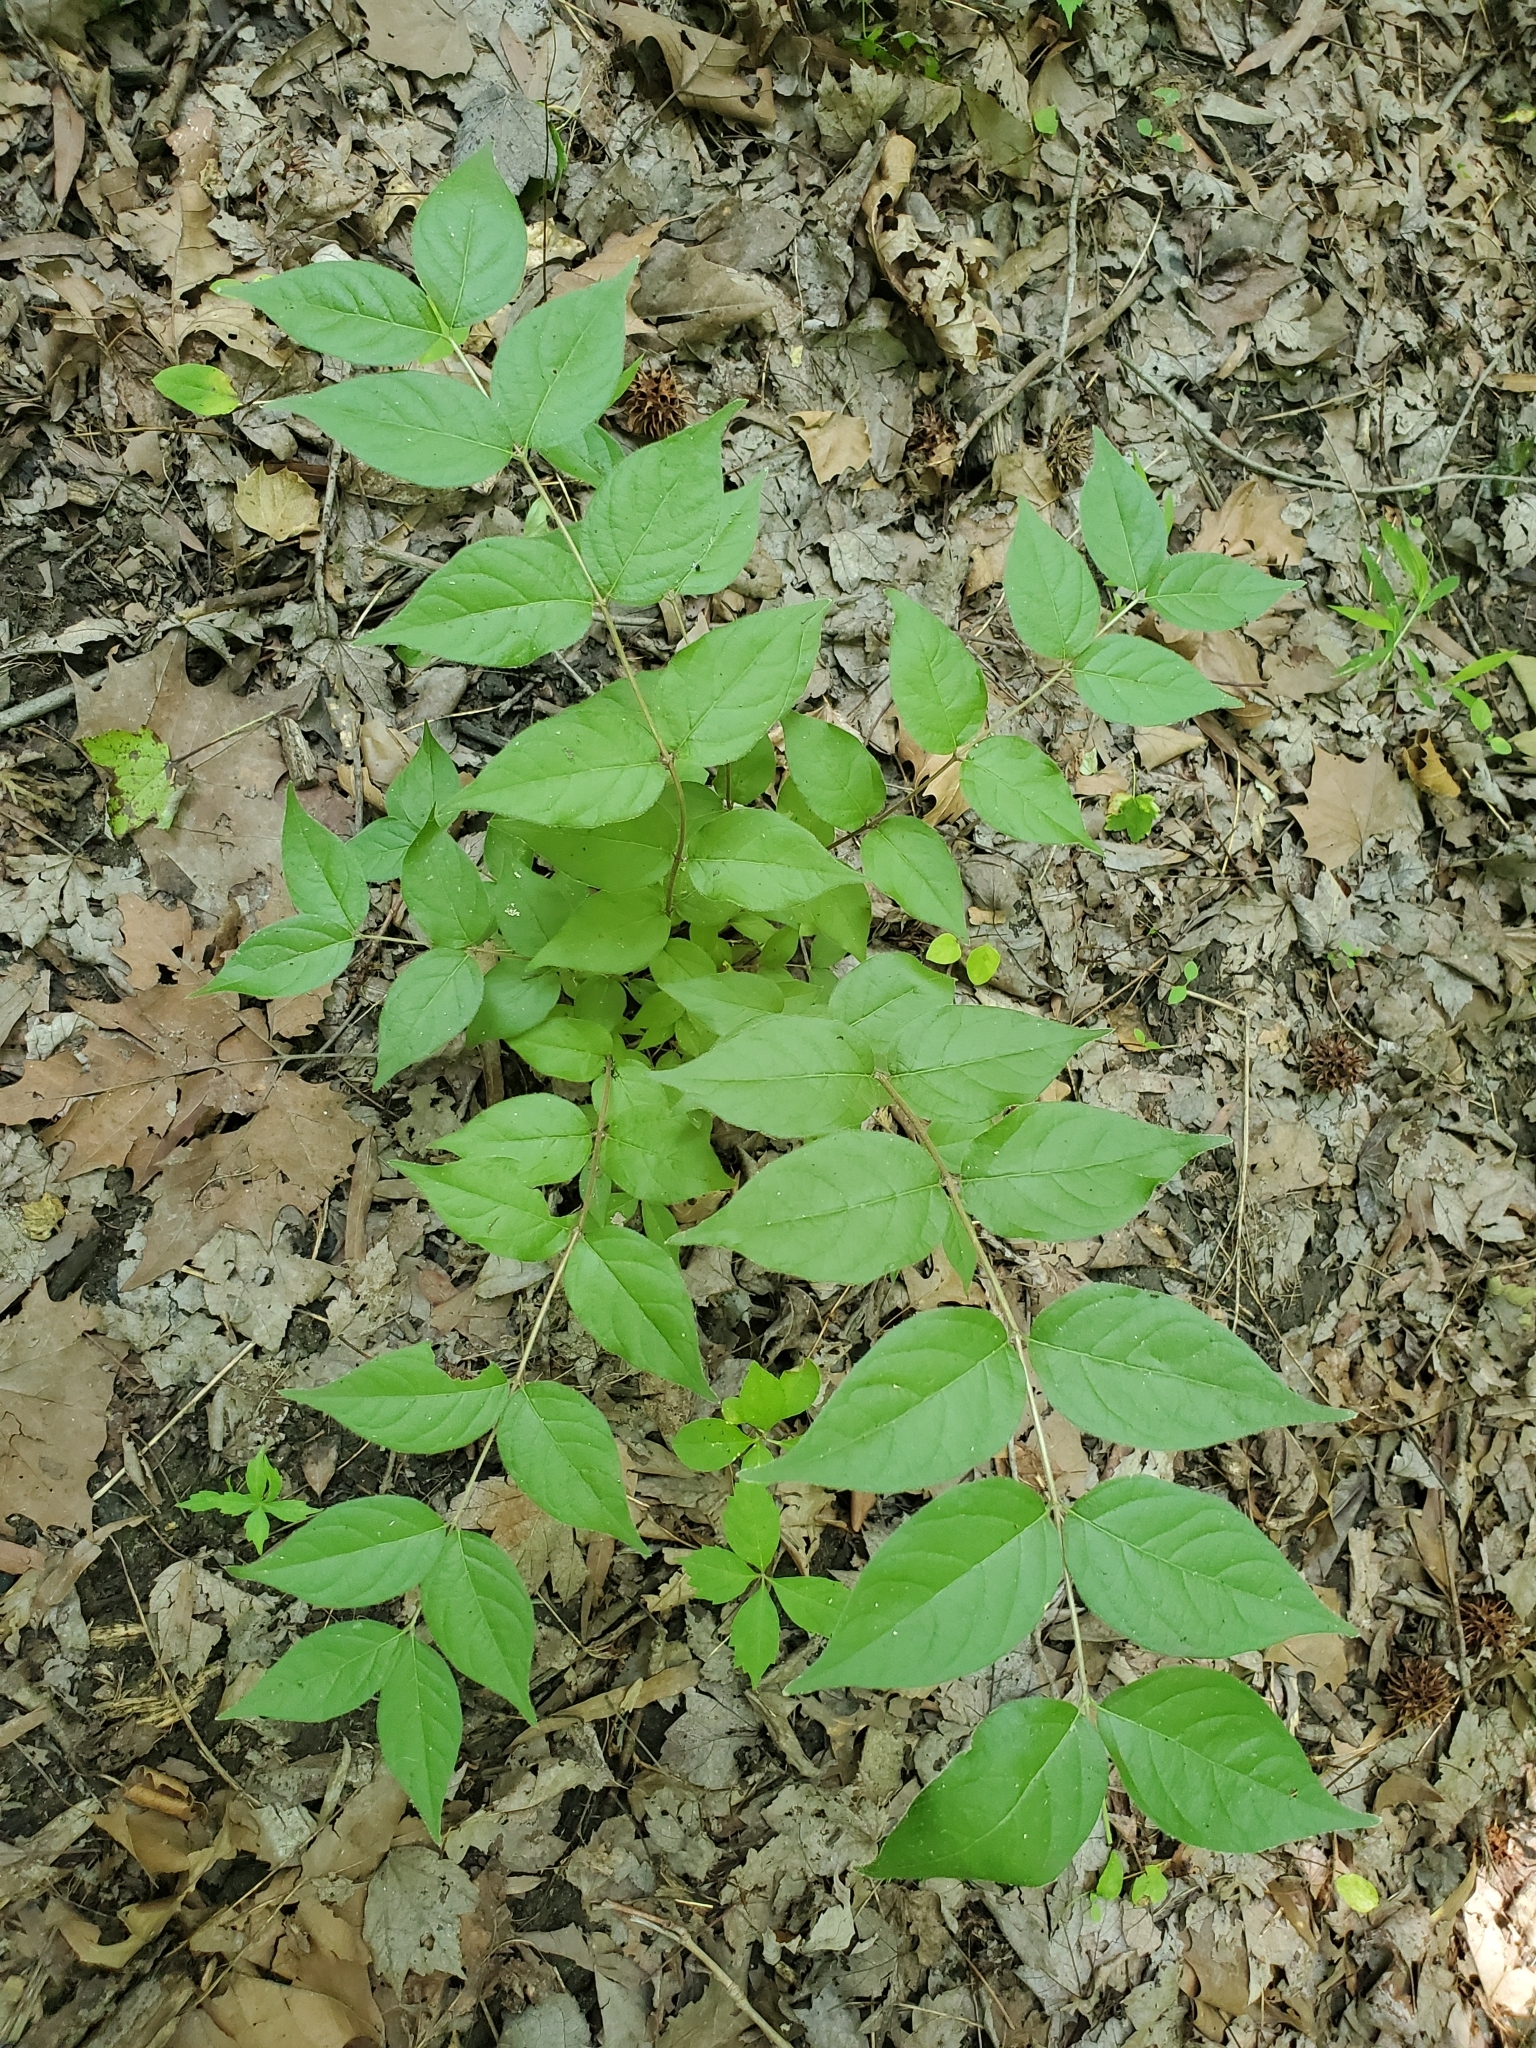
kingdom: Plantae
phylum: Tracheophyta
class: Magnoliopsida
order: Dipsacales
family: Caprifoliaceae
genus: Lonicera
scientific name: Lonicera maackii
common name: Amur honeysuckle
